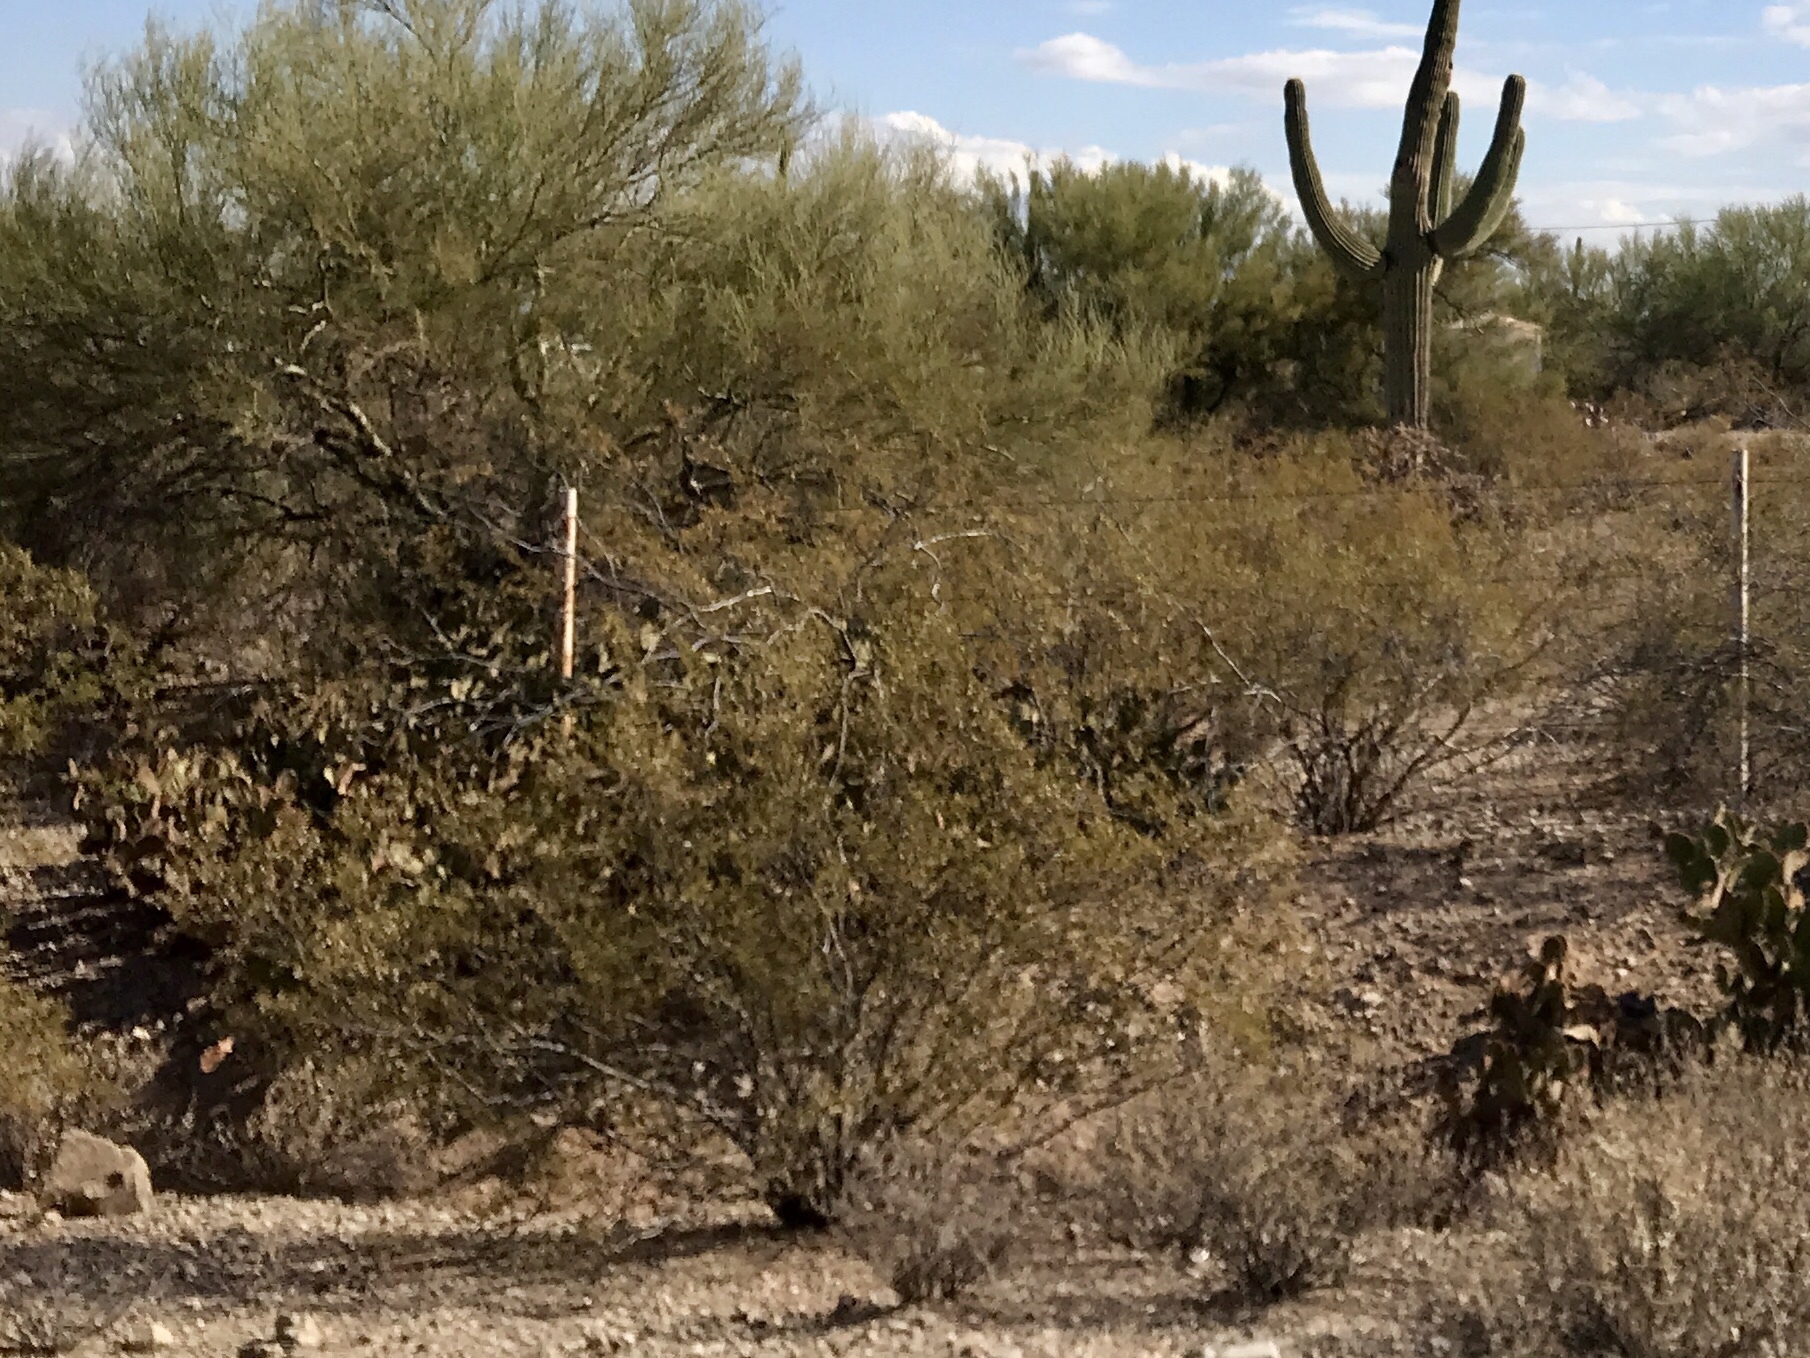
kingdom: Plantae
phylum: Tracheophyta
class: Magnoliopsida
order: Zygophyllales
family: Zygophyllaceae
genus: Larrea
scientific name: Larrea tridentata
